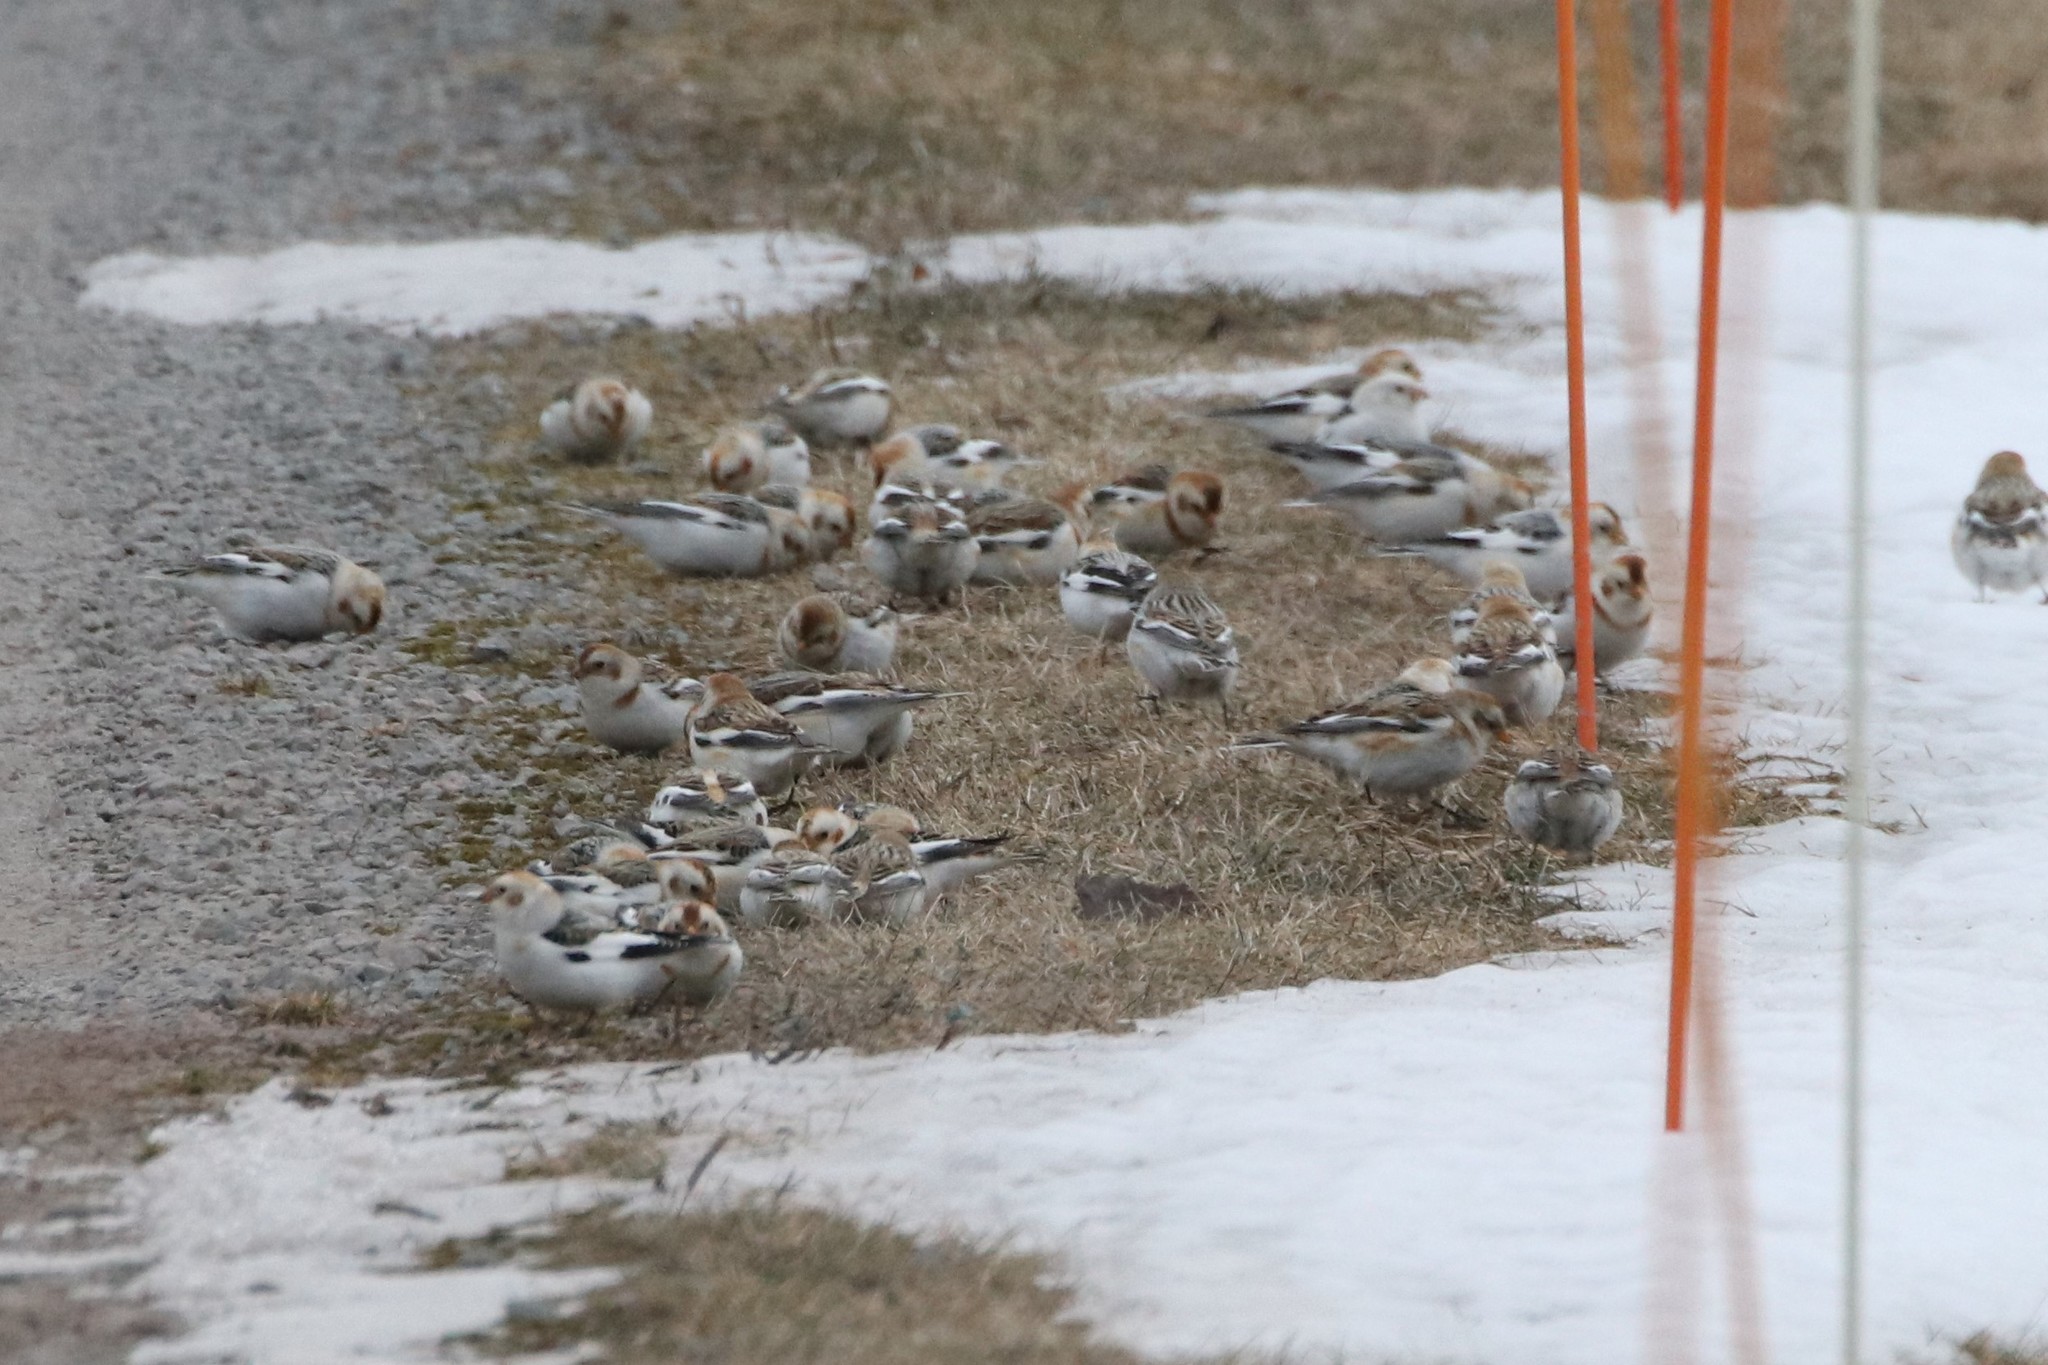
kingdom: Animalia
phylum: Chordata
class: Aves
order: Passeriformes
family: Calcariidae
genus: Plectrophenax
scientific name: Plectrophenax nivalis
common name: Snow bunting
